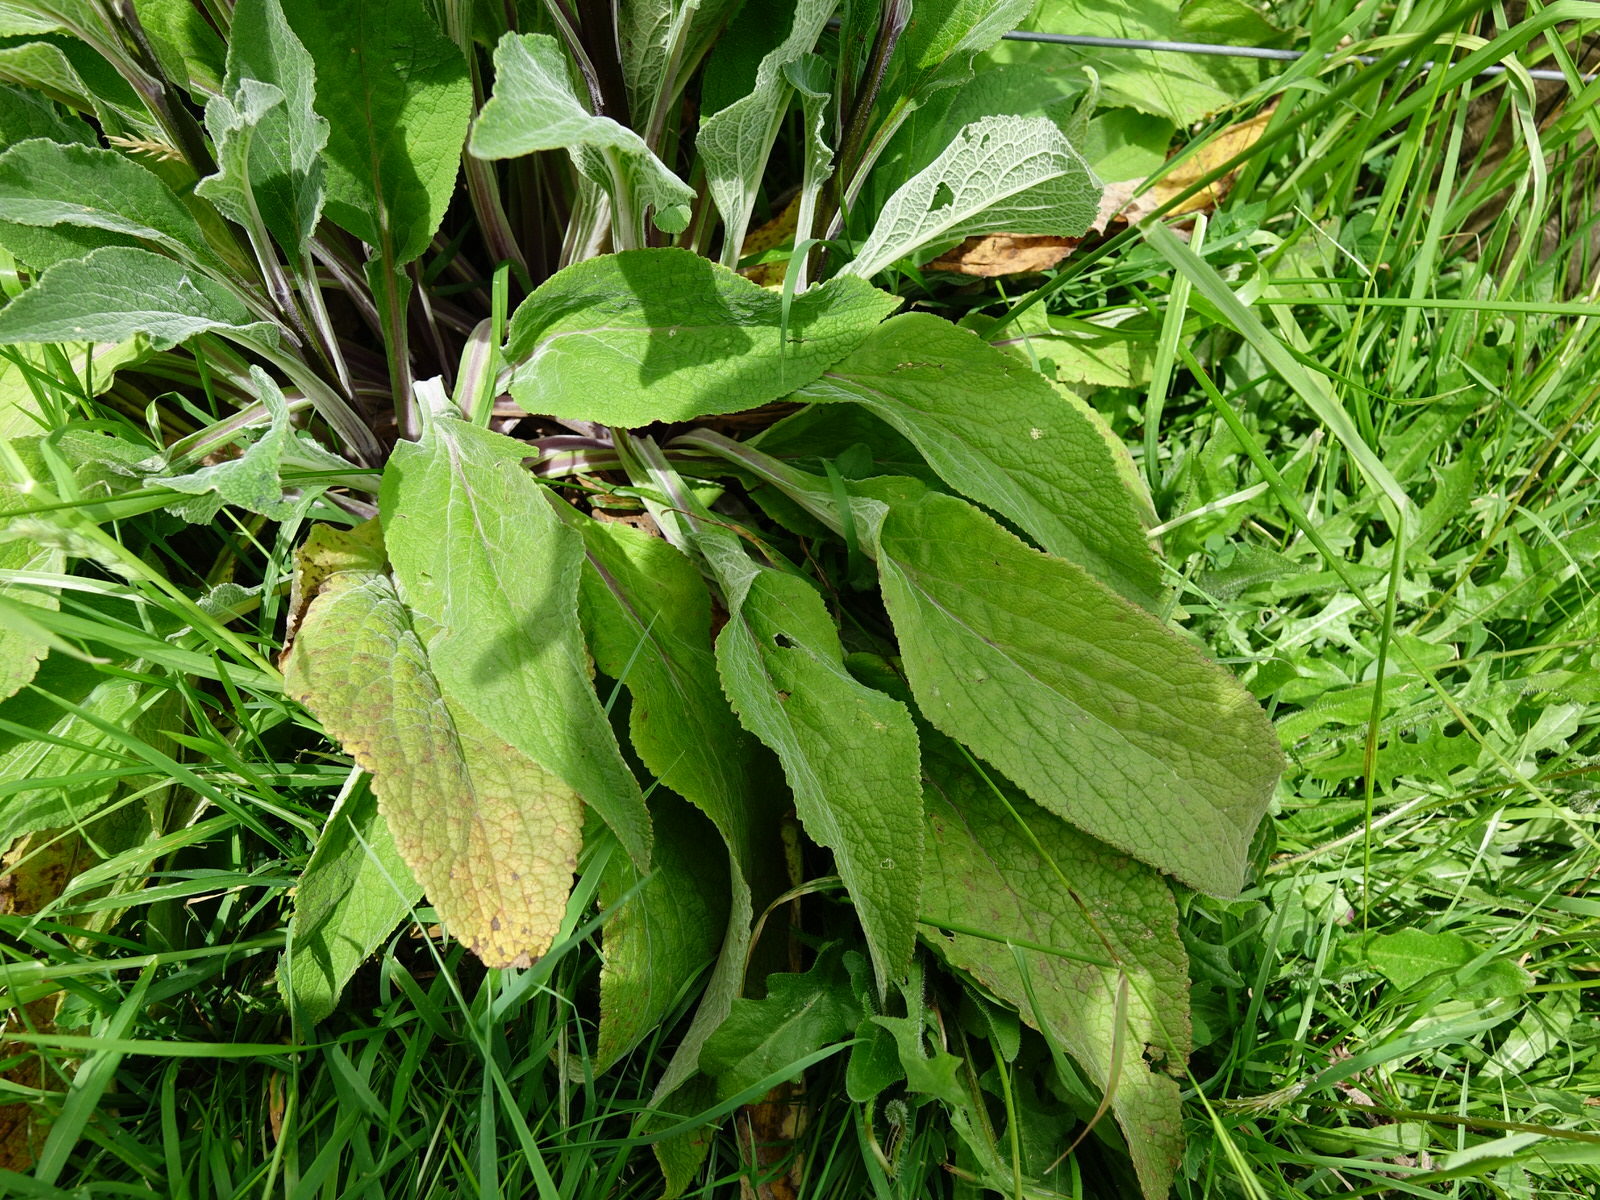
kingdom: Plantae
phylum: Tracheophyta
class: Magnoliopsida
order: Lamiales
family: Plantaginaceae
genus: Digitalis
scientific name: Digitalis purpurea
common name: Foxglove
